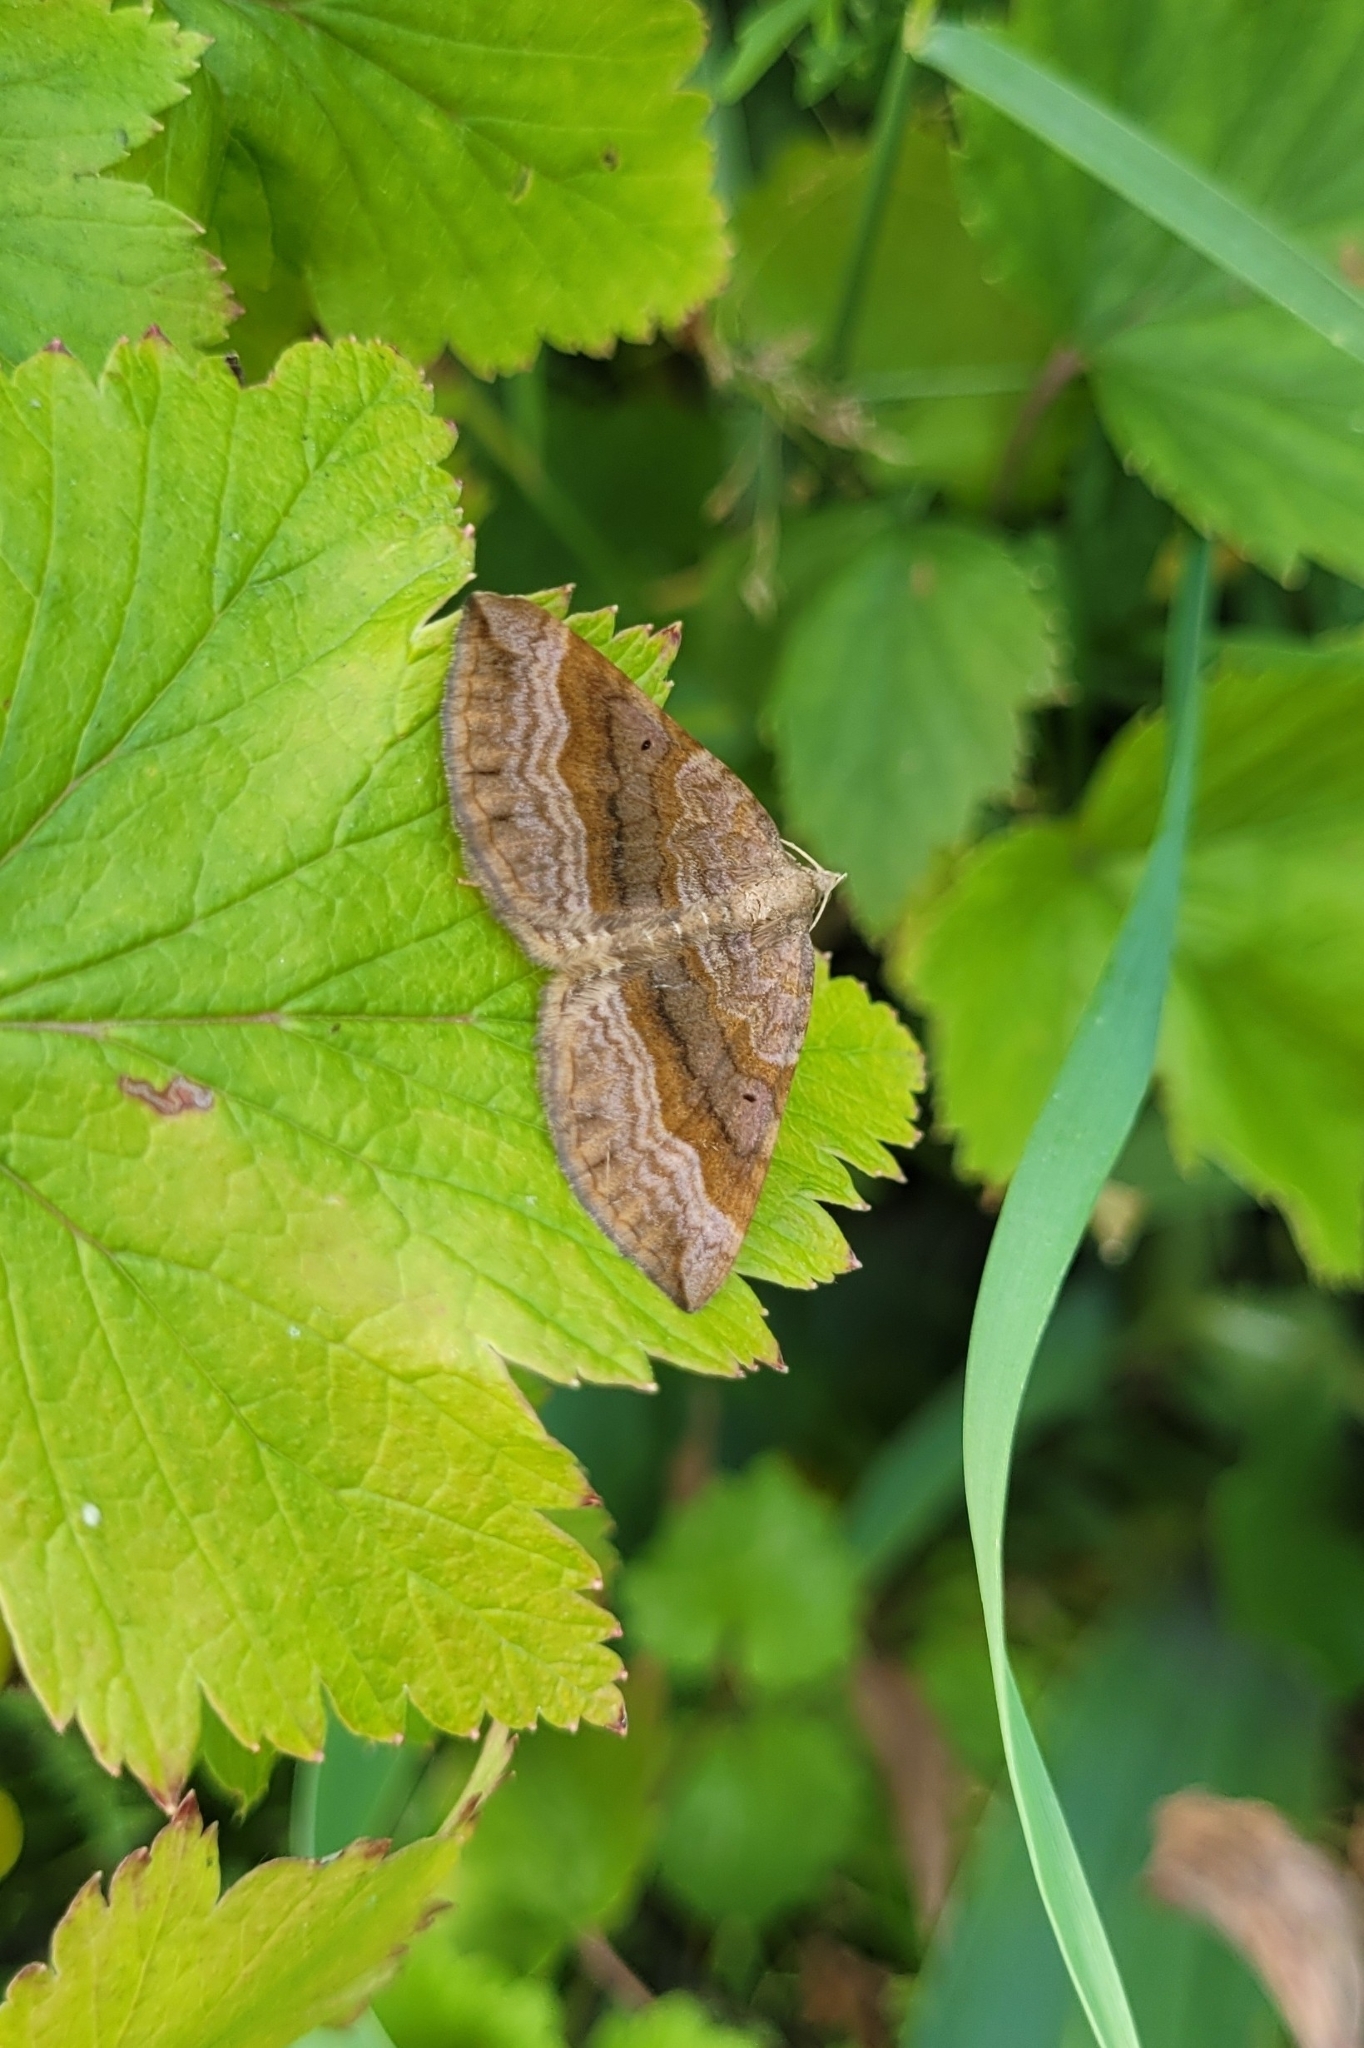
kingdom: Animalia
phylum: Arthropoda
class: Insecta
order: Lepidoptera
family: Geometridae
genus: Scotopteryx
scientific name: Scotopteryx chenopodiata
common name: Shaded broad-bar
